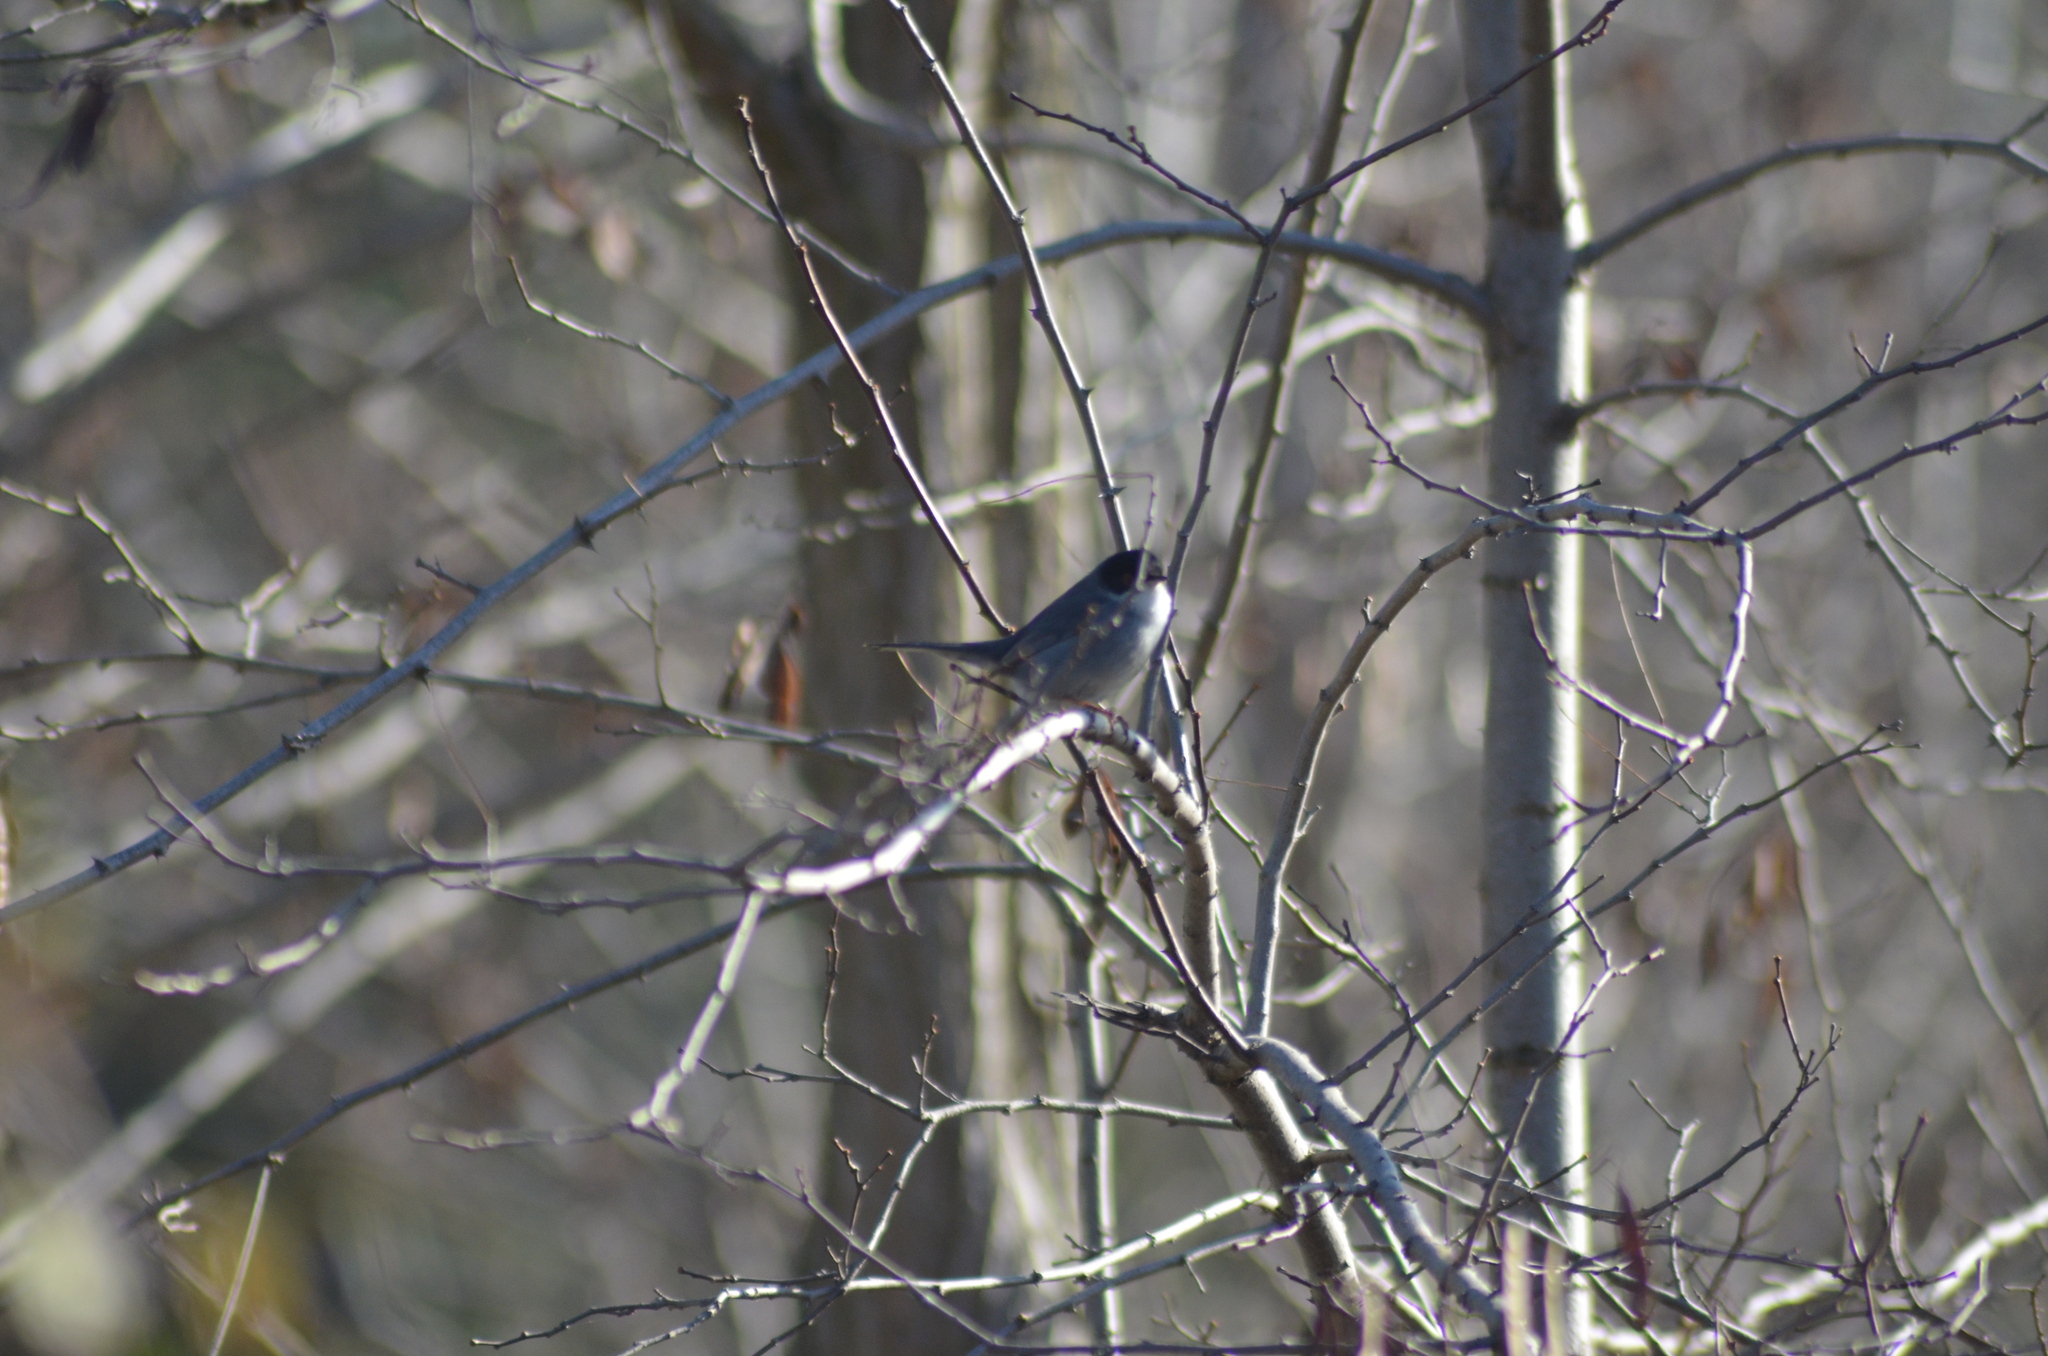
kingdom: Animalia
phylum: Chordata
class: Aves
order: Passeriformes
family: Sylviidae
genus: Curruca
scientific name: Curruca melanocephala
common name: Sardinian warbler
